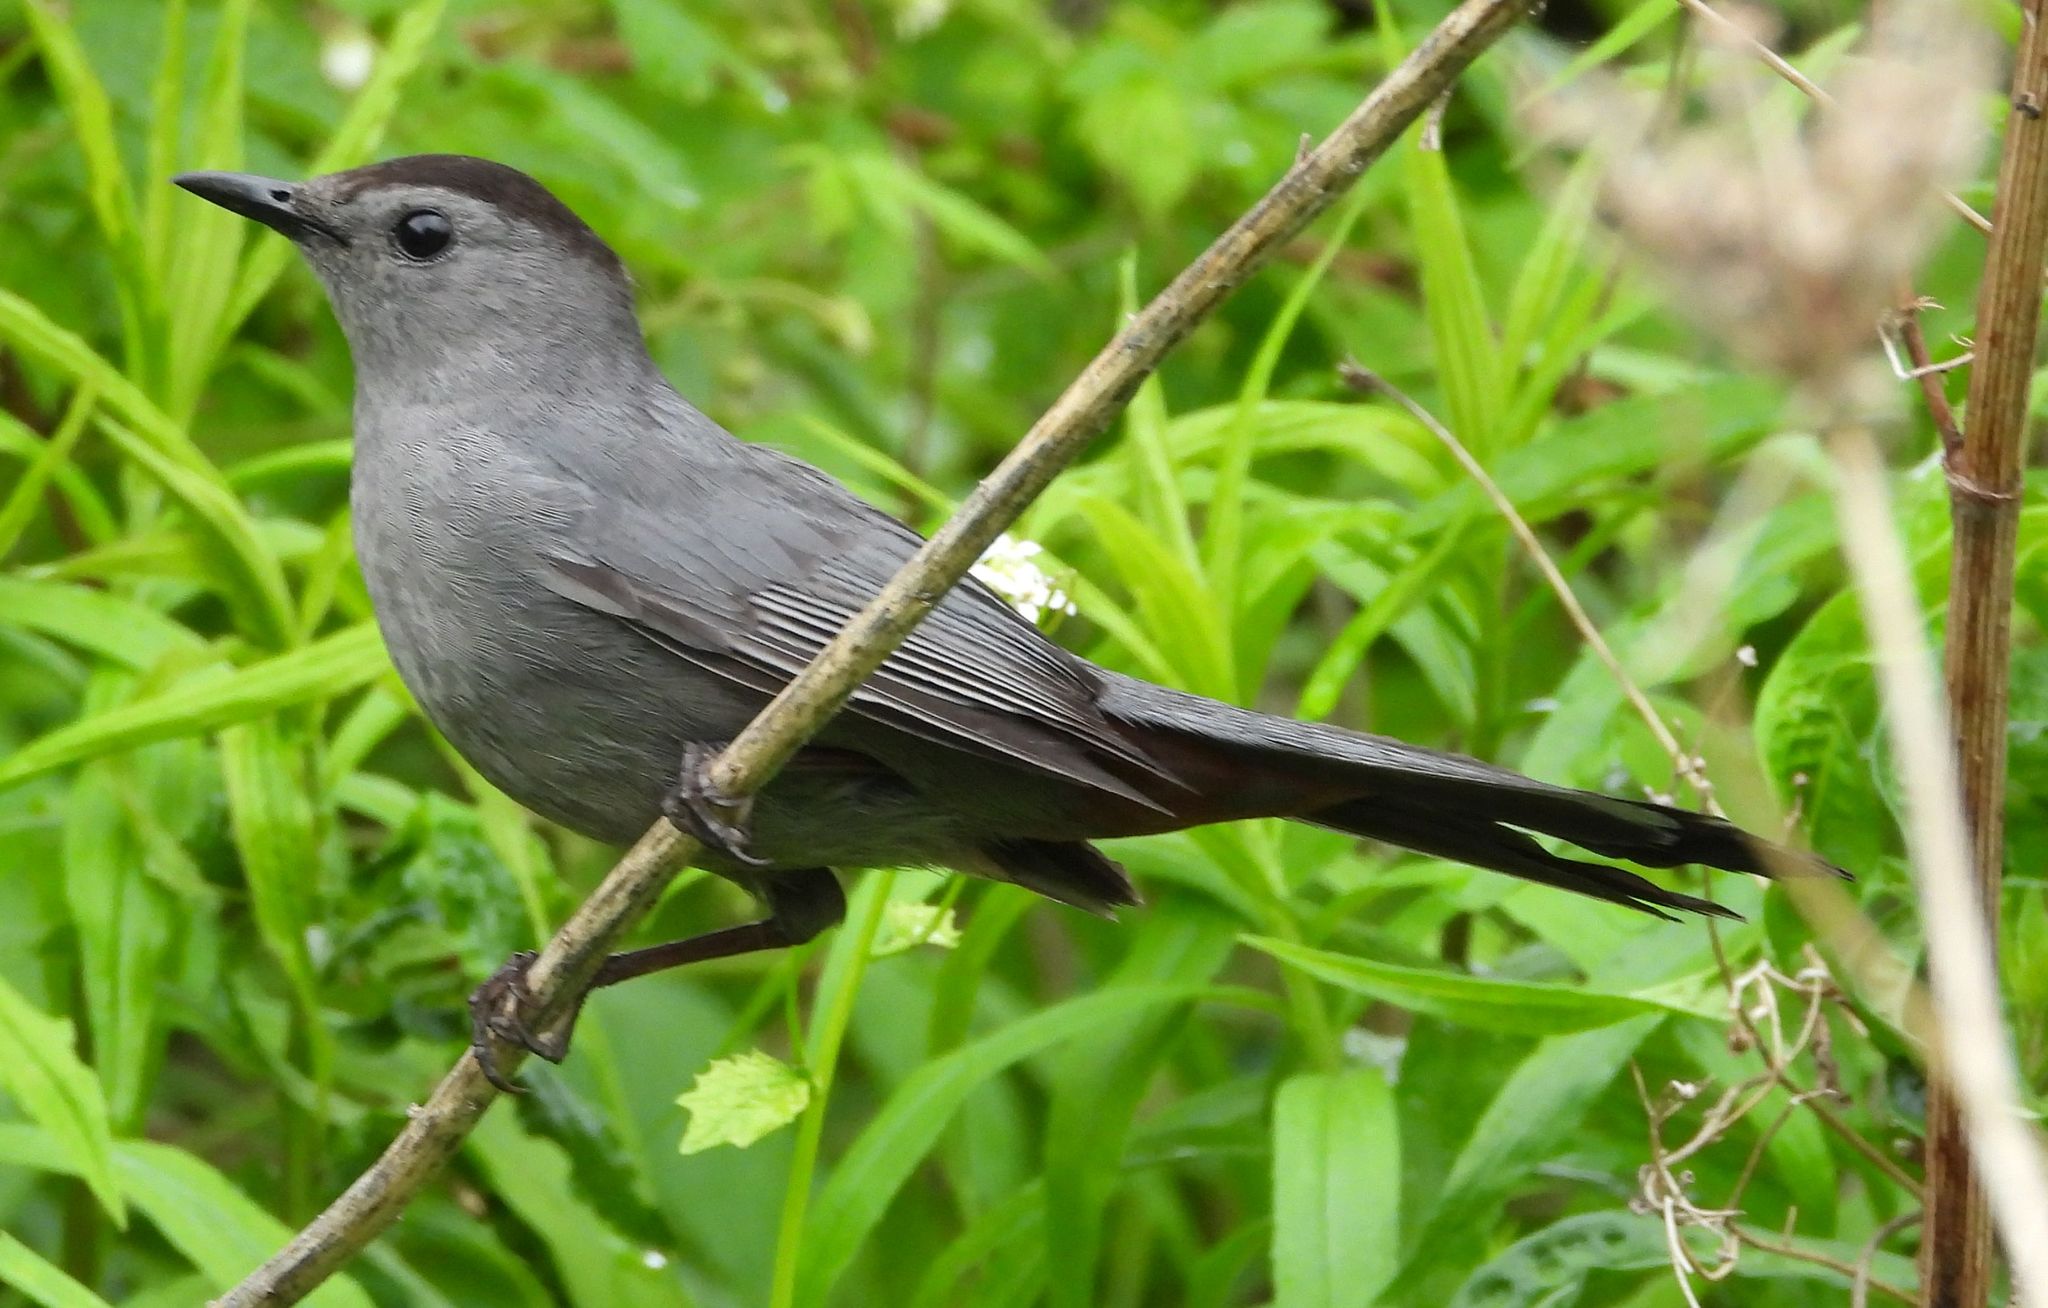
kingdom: Animalia
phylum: Chordata
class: Aves
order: Passeriformes
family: Mimidae
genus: Dumetella
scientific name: Dumetella carolinensis
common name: Gray catbird
